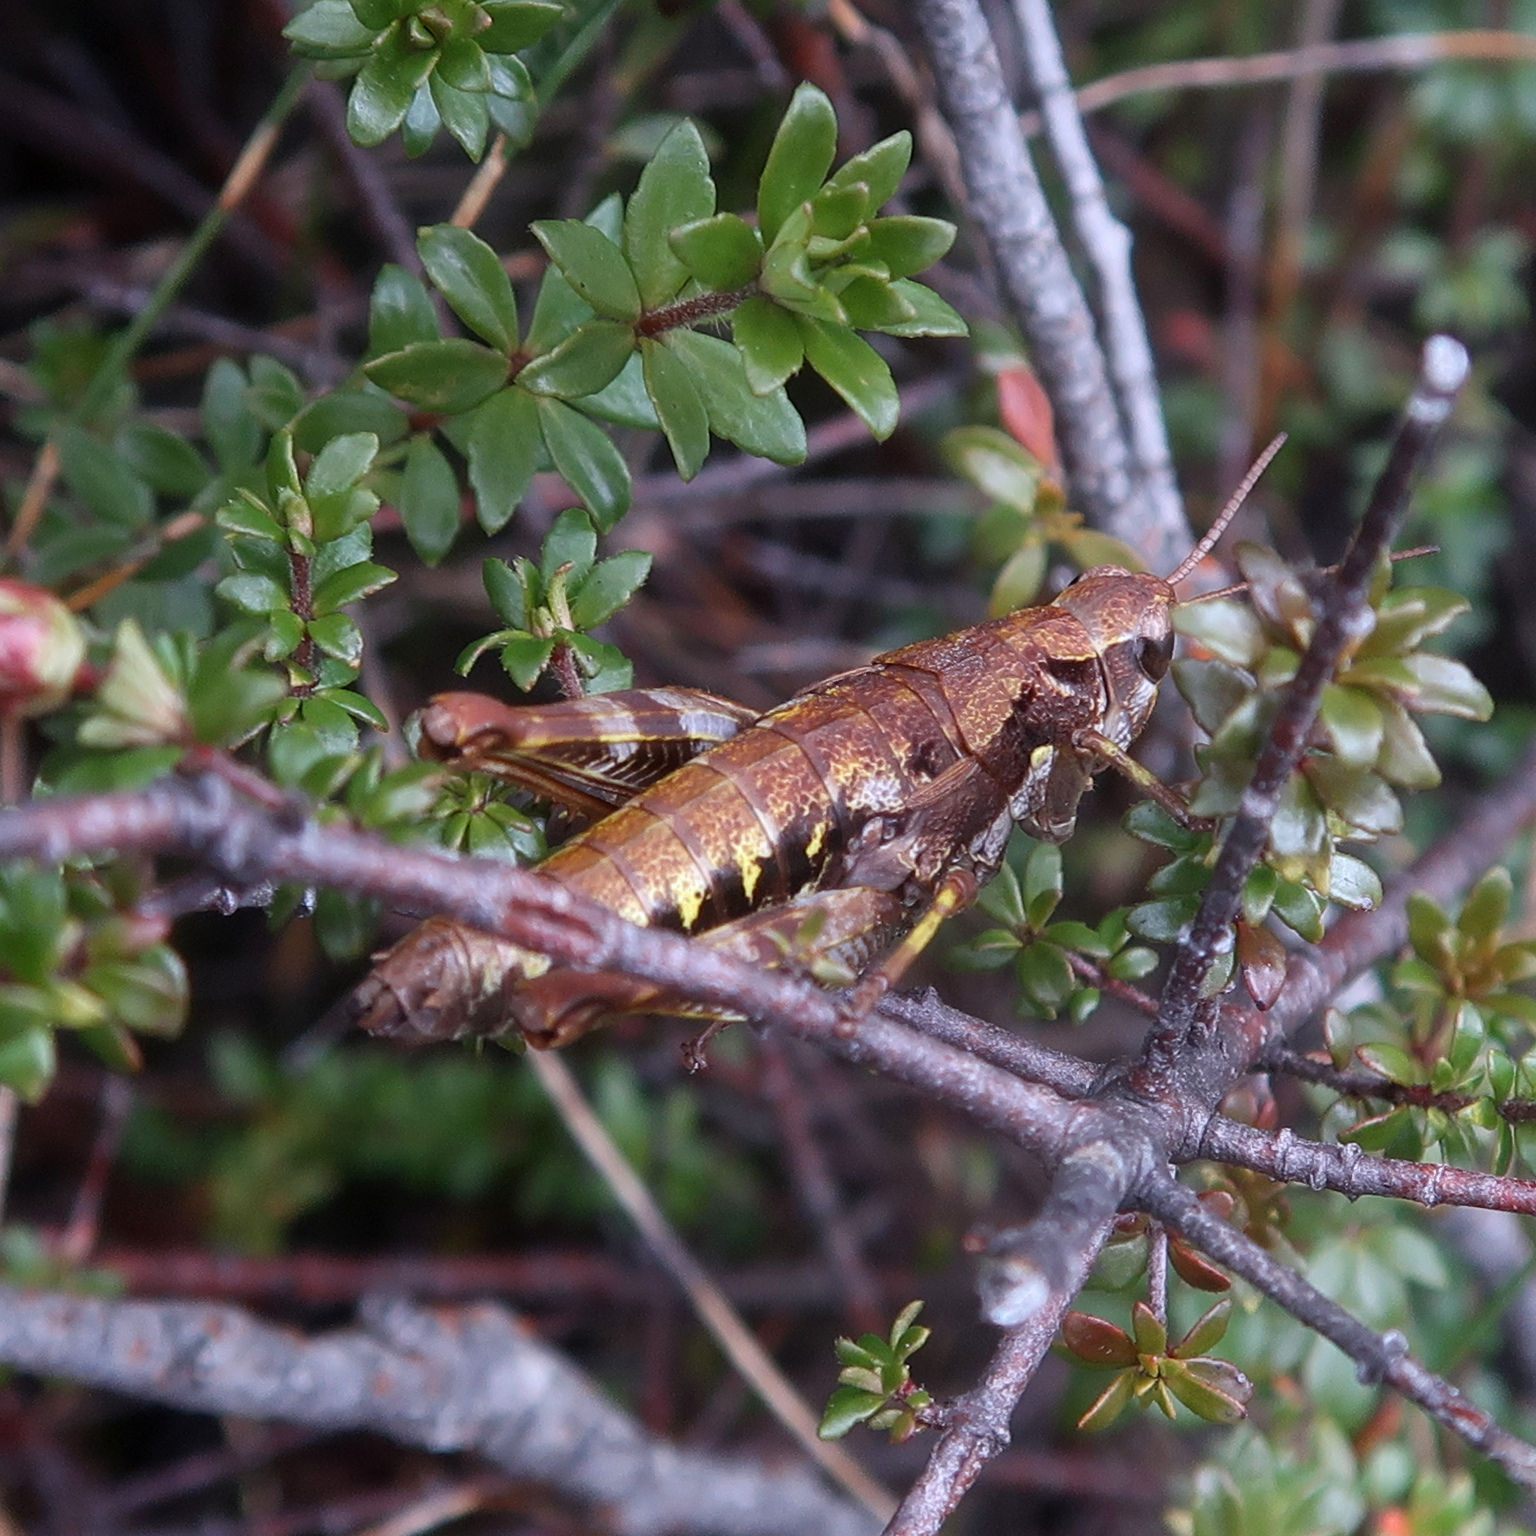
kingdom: Animalia
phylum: Arthropoda
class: Insecta
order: Orthoptera
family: Acrididae
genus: Tasmaniacris
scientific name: Tasmaniacris tasmaniensis
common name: Tasmanian grasshopper
